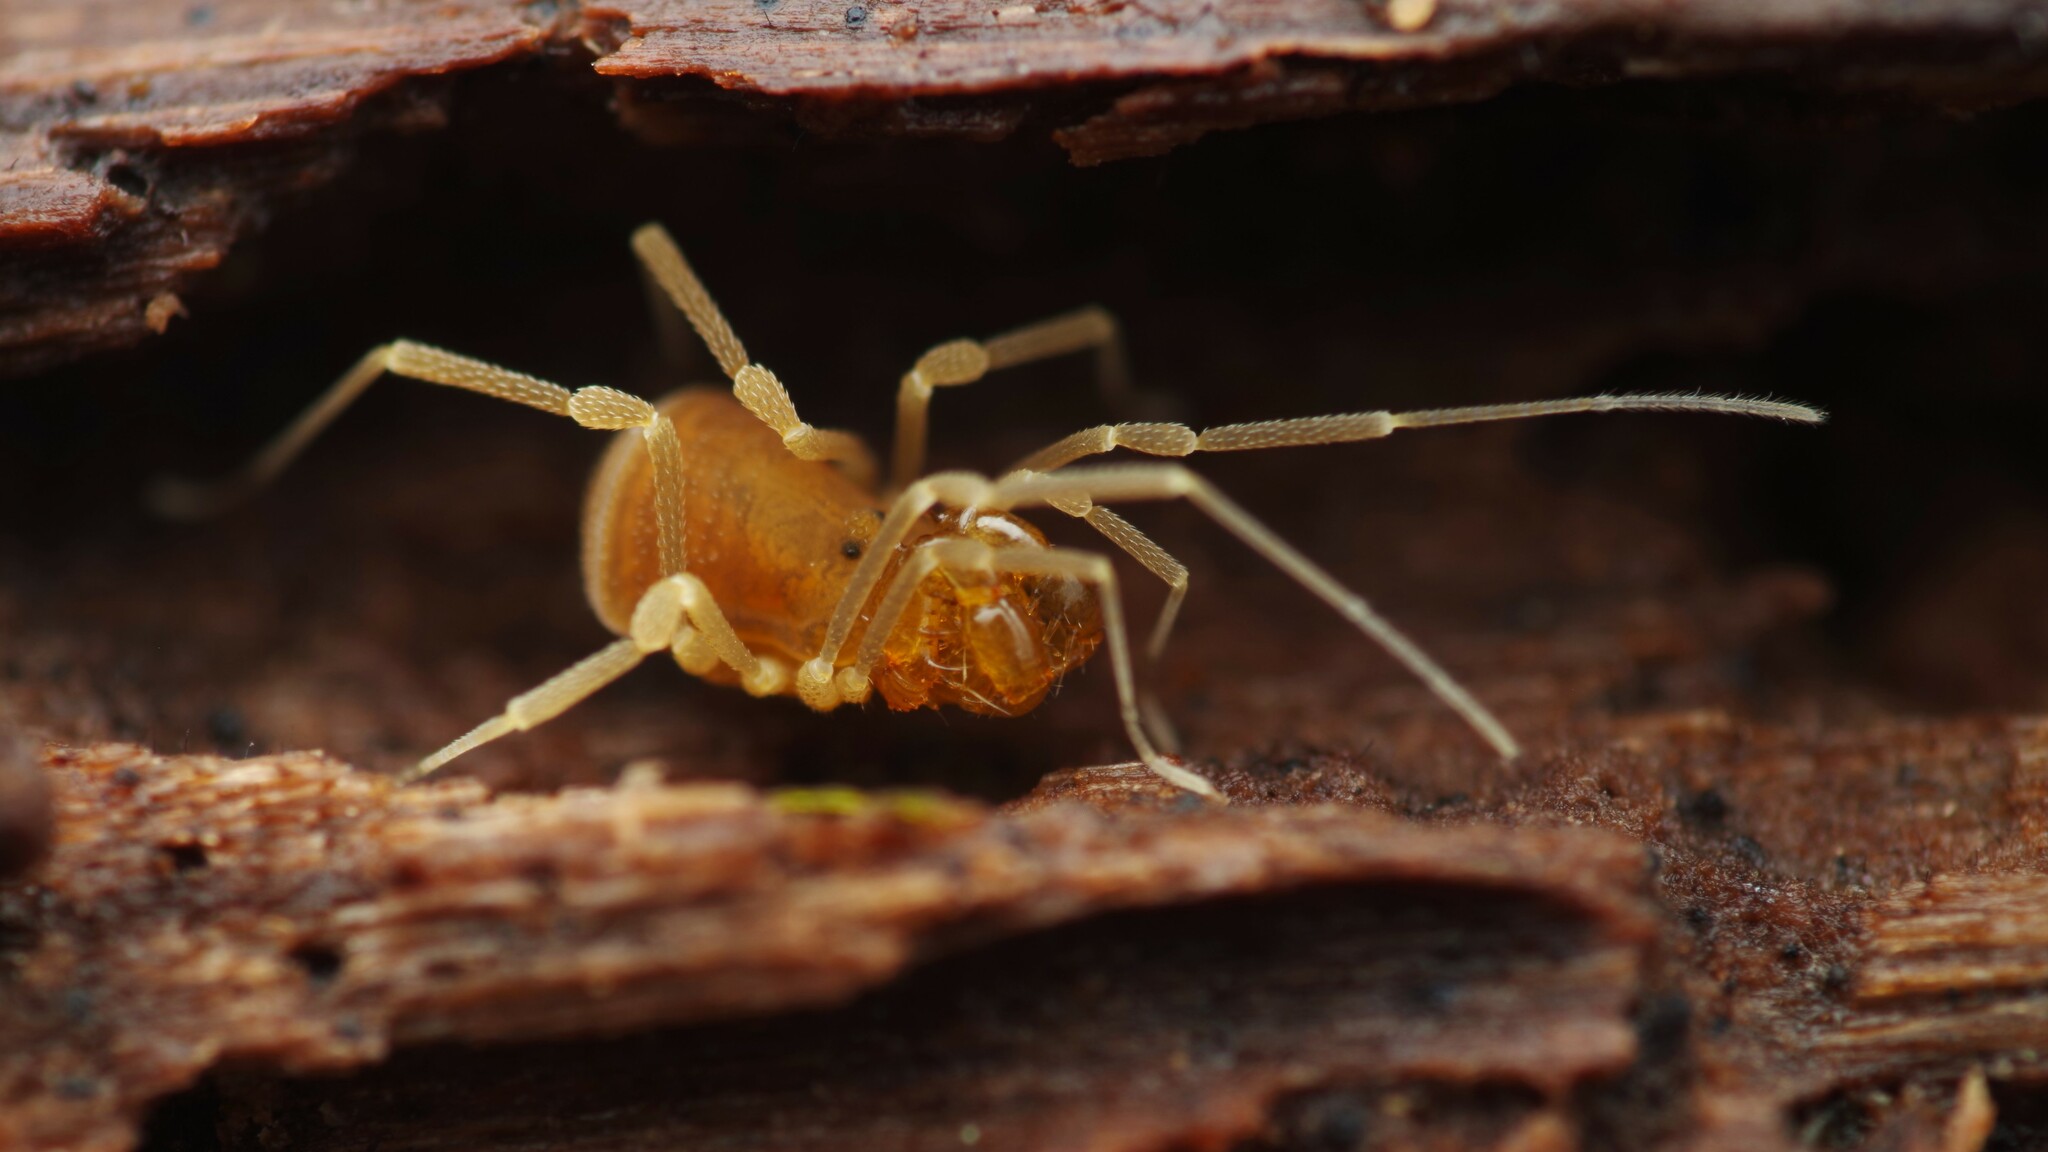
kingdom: Animalia
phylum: Arthropoda
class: Arachnida
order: Opiliones
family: Cladonychiidae
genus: Holoscotolemon
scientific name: Holoscotolemon querilhaci
